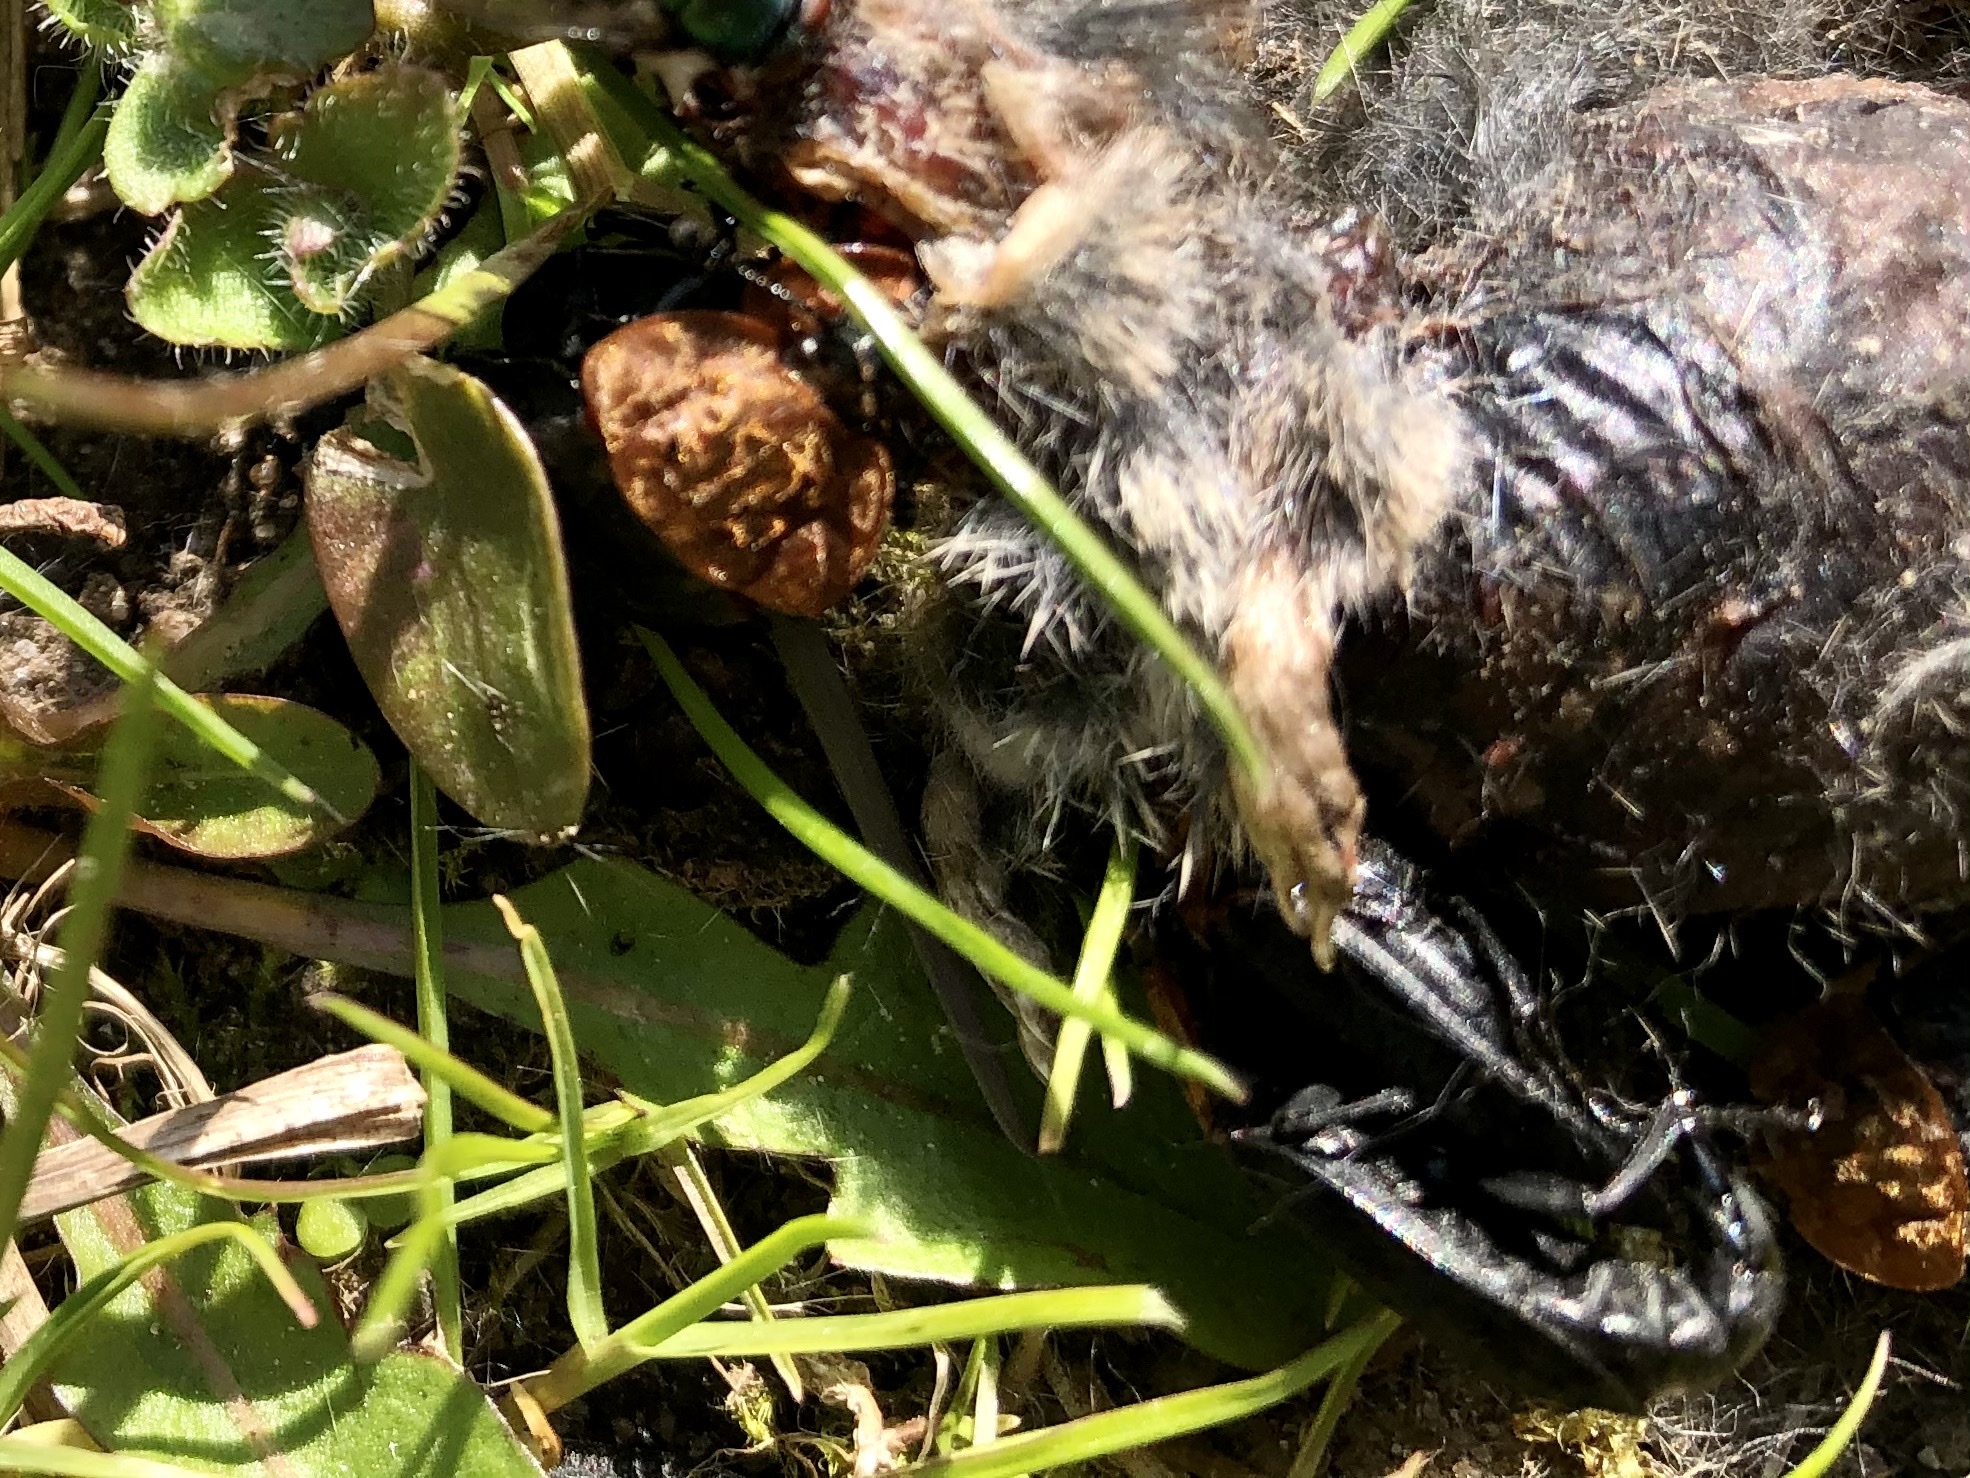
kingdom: Animalia
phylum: Arthropoda
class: Insecta
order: Coleoptera
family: Staphylinidae
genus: Oiceoptoma
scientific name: Oiceoptoma thoracicum
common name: Red-breasted carrion beetle
